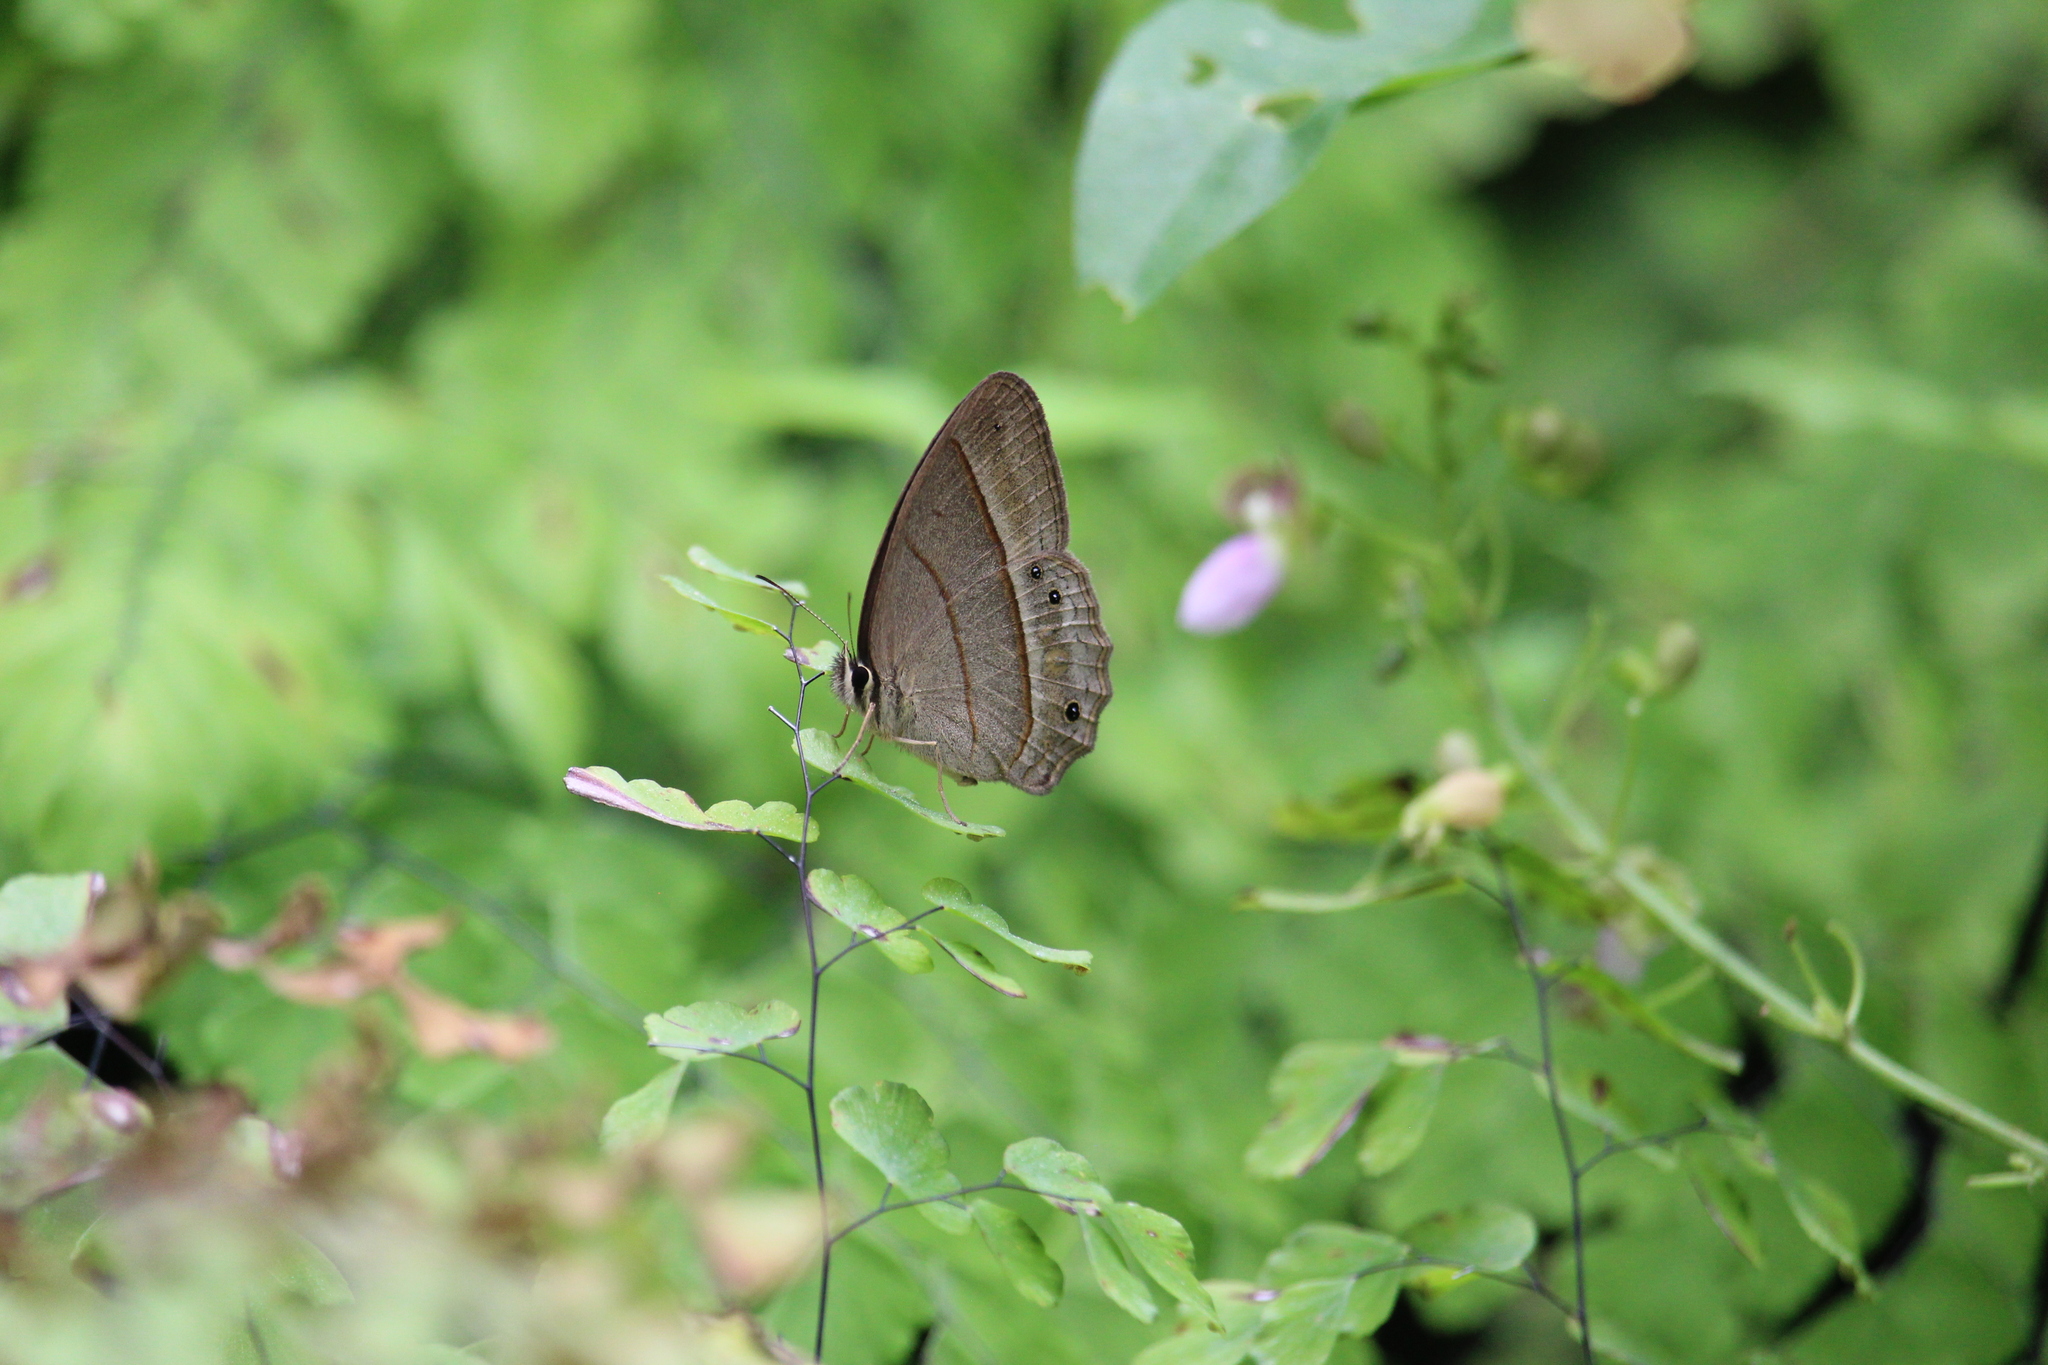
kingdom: Animalia
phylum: Arthropoda
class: Insecta
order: Lepidoptera
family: Nymphalidae
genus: Euptychia
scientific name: Euptychia Cissia pompilia
